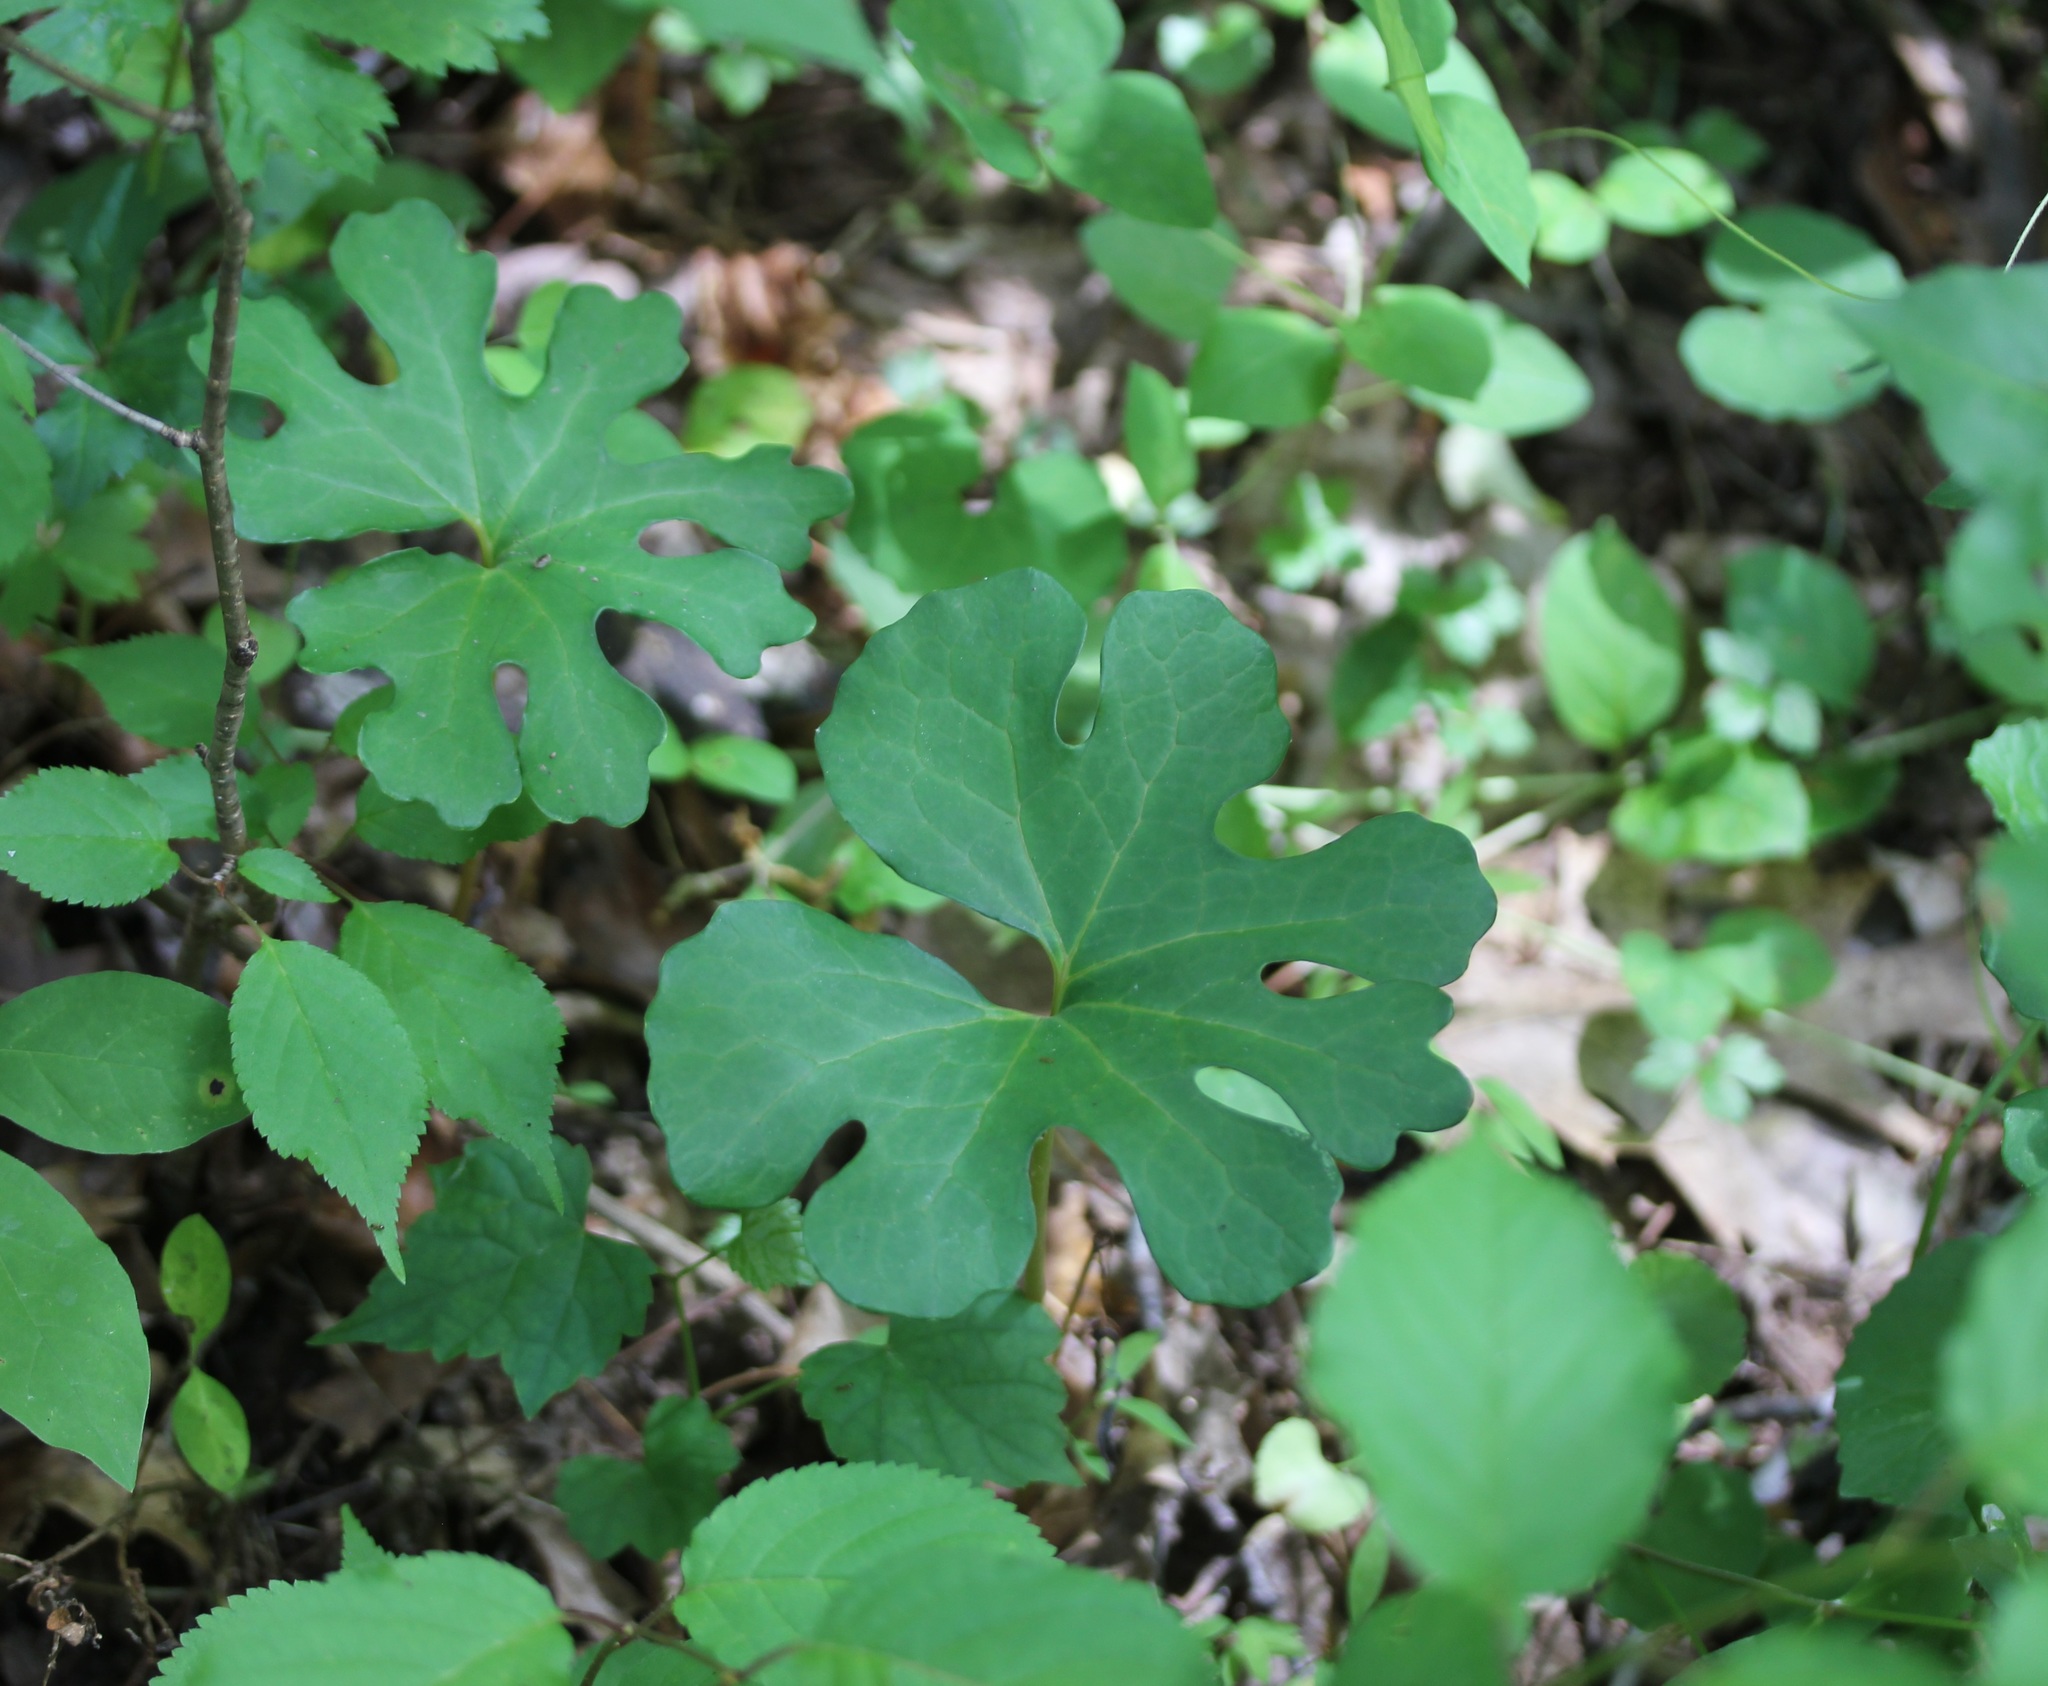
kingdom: Plantae
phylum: Tracheophyta
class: Magnoliopsida
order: Ranunculales
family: Papaveraceae
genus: Sanguinaria
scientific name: Sanguinaria canadensis
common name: Bloodroot
